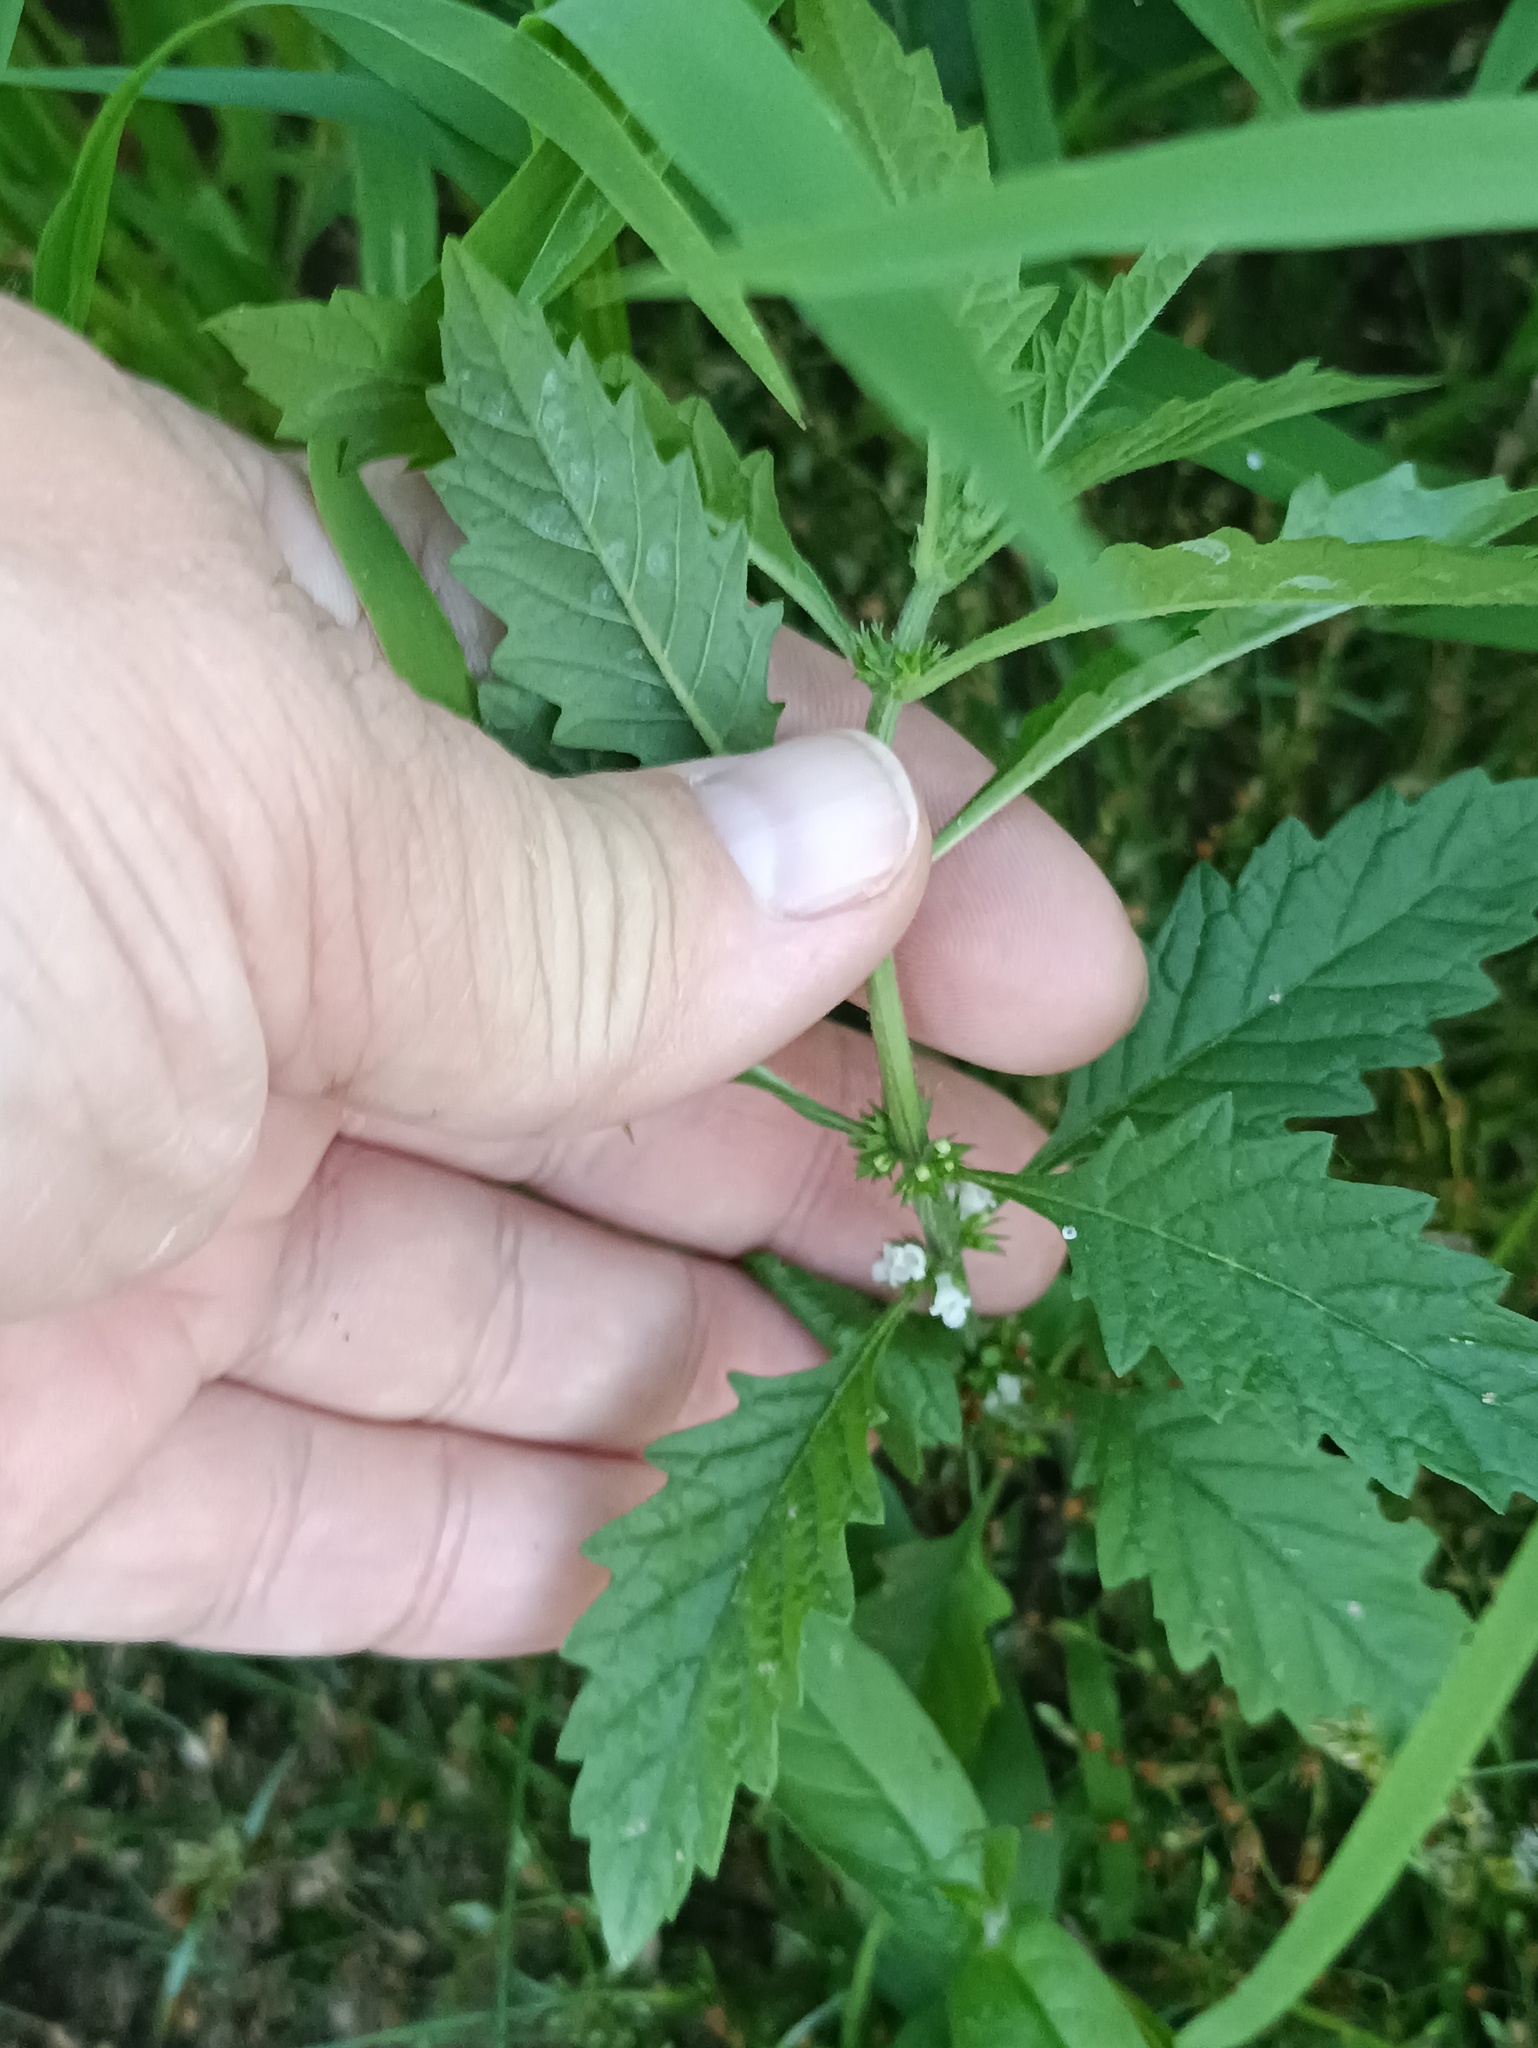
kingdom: Plantae
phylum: Tracheophyta
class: Magnoliopsida
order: Lamiales
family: Lamiaceae
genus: Lycopus
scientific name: Lycopus europaeus
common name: European bugleweed
